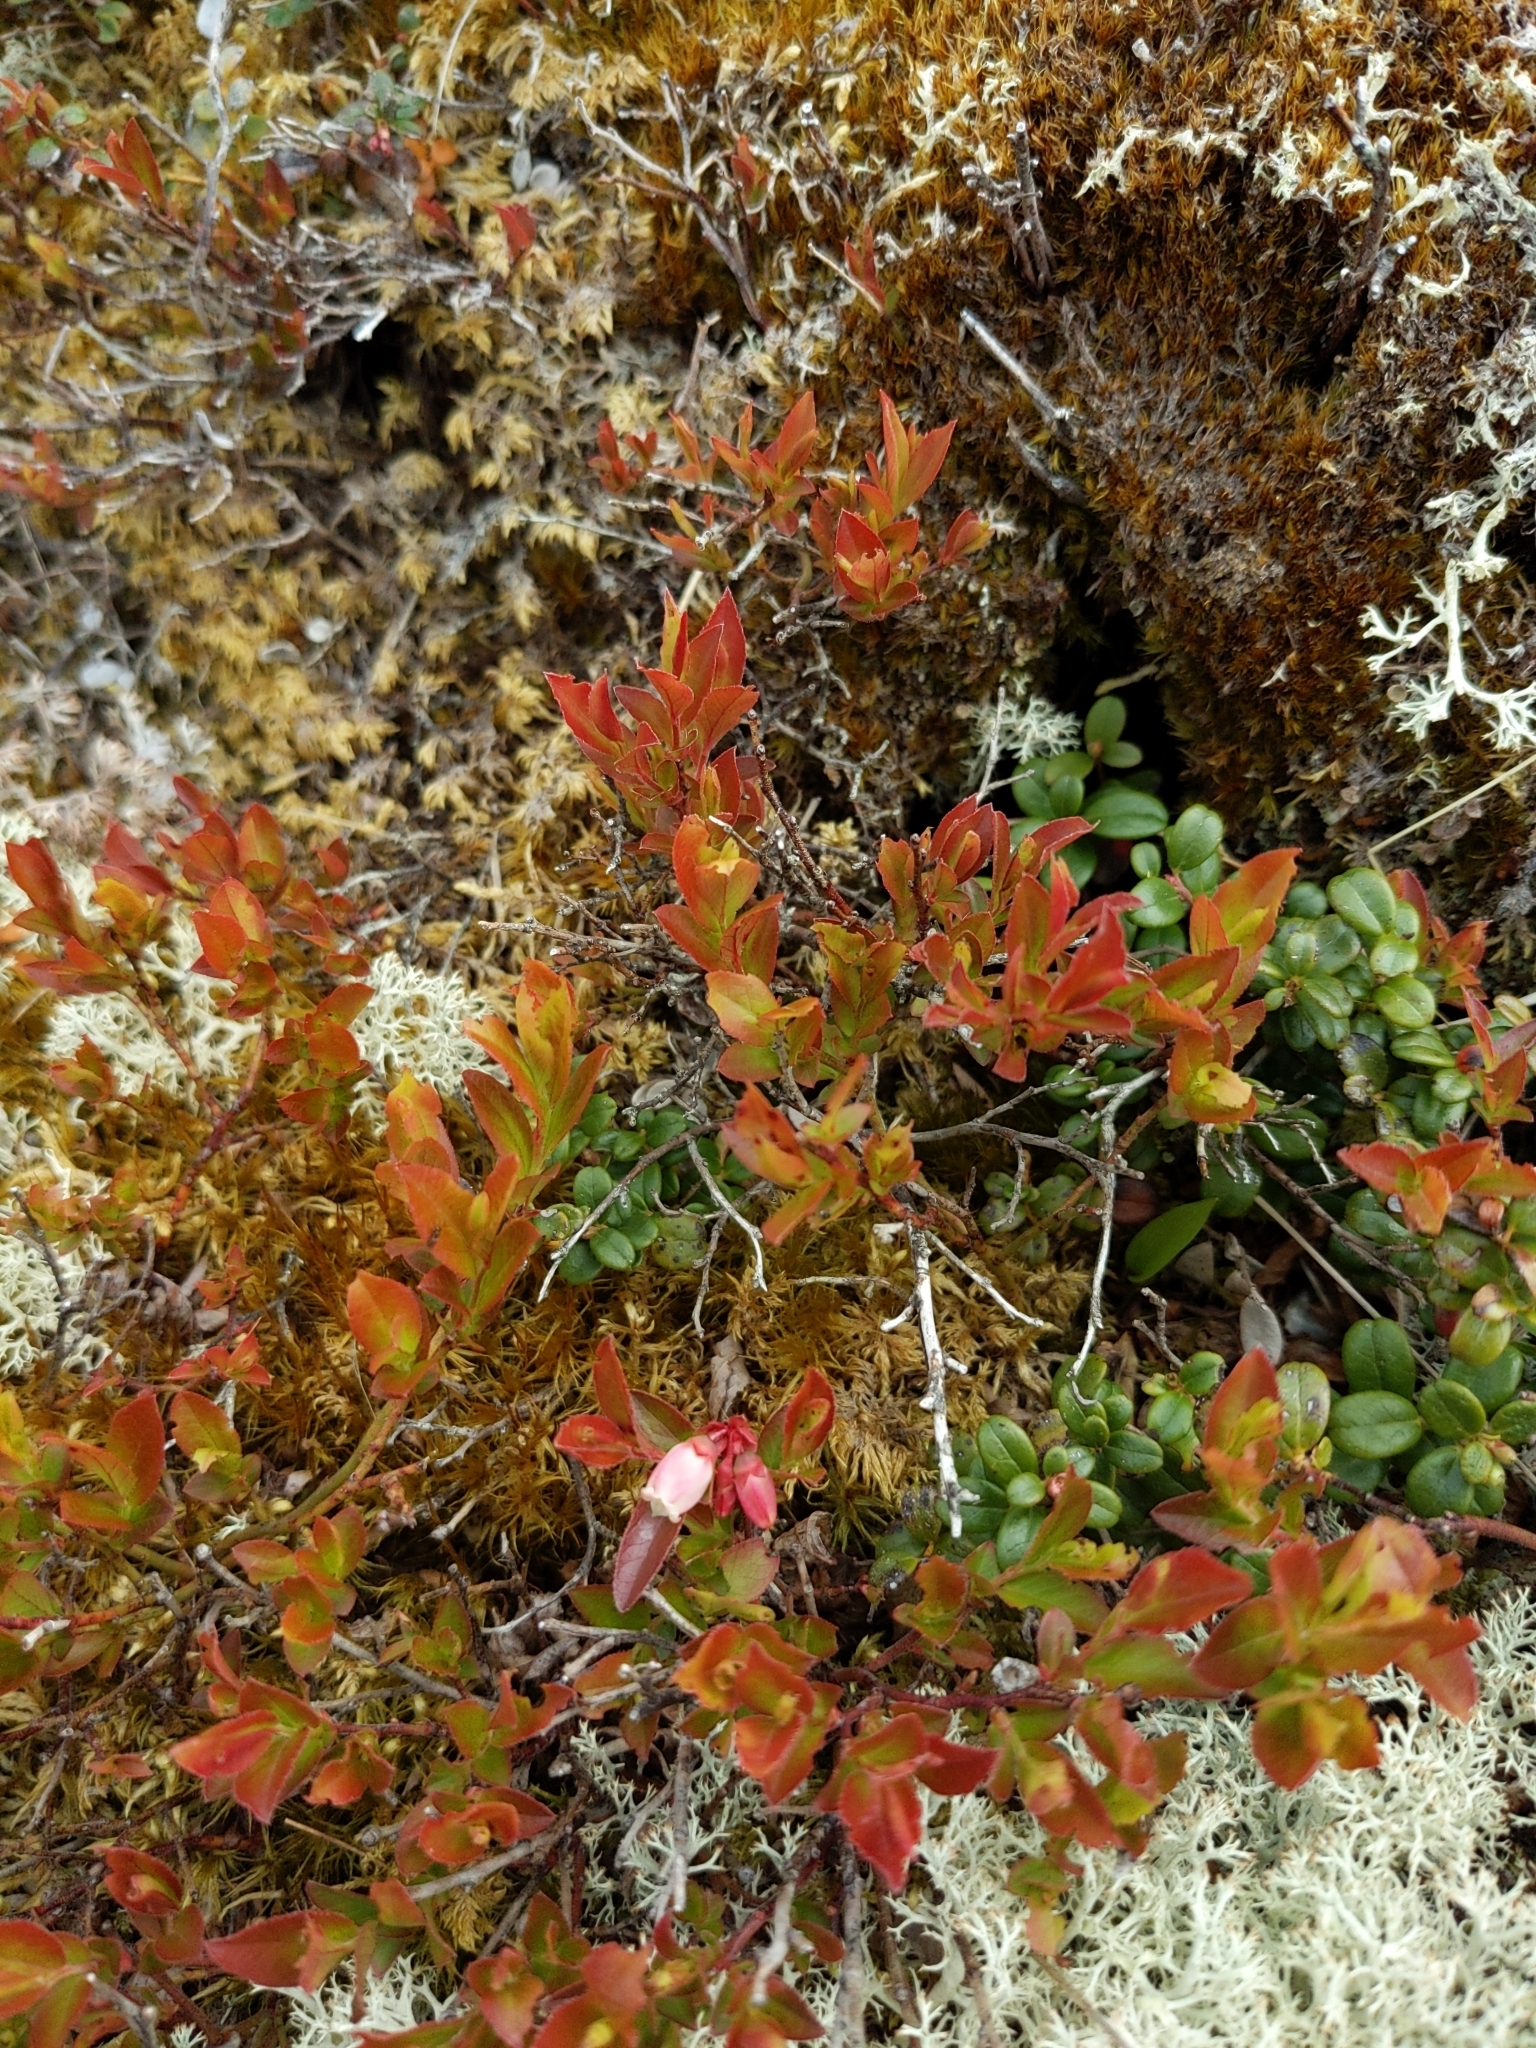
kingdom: Plantae
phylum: Tracheophyta
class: Magnoliopsida
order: Ericales
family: Ericaceae
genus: Vaccinium
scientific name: Vaccinium angustifolium
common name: Early lowbush blueberry
